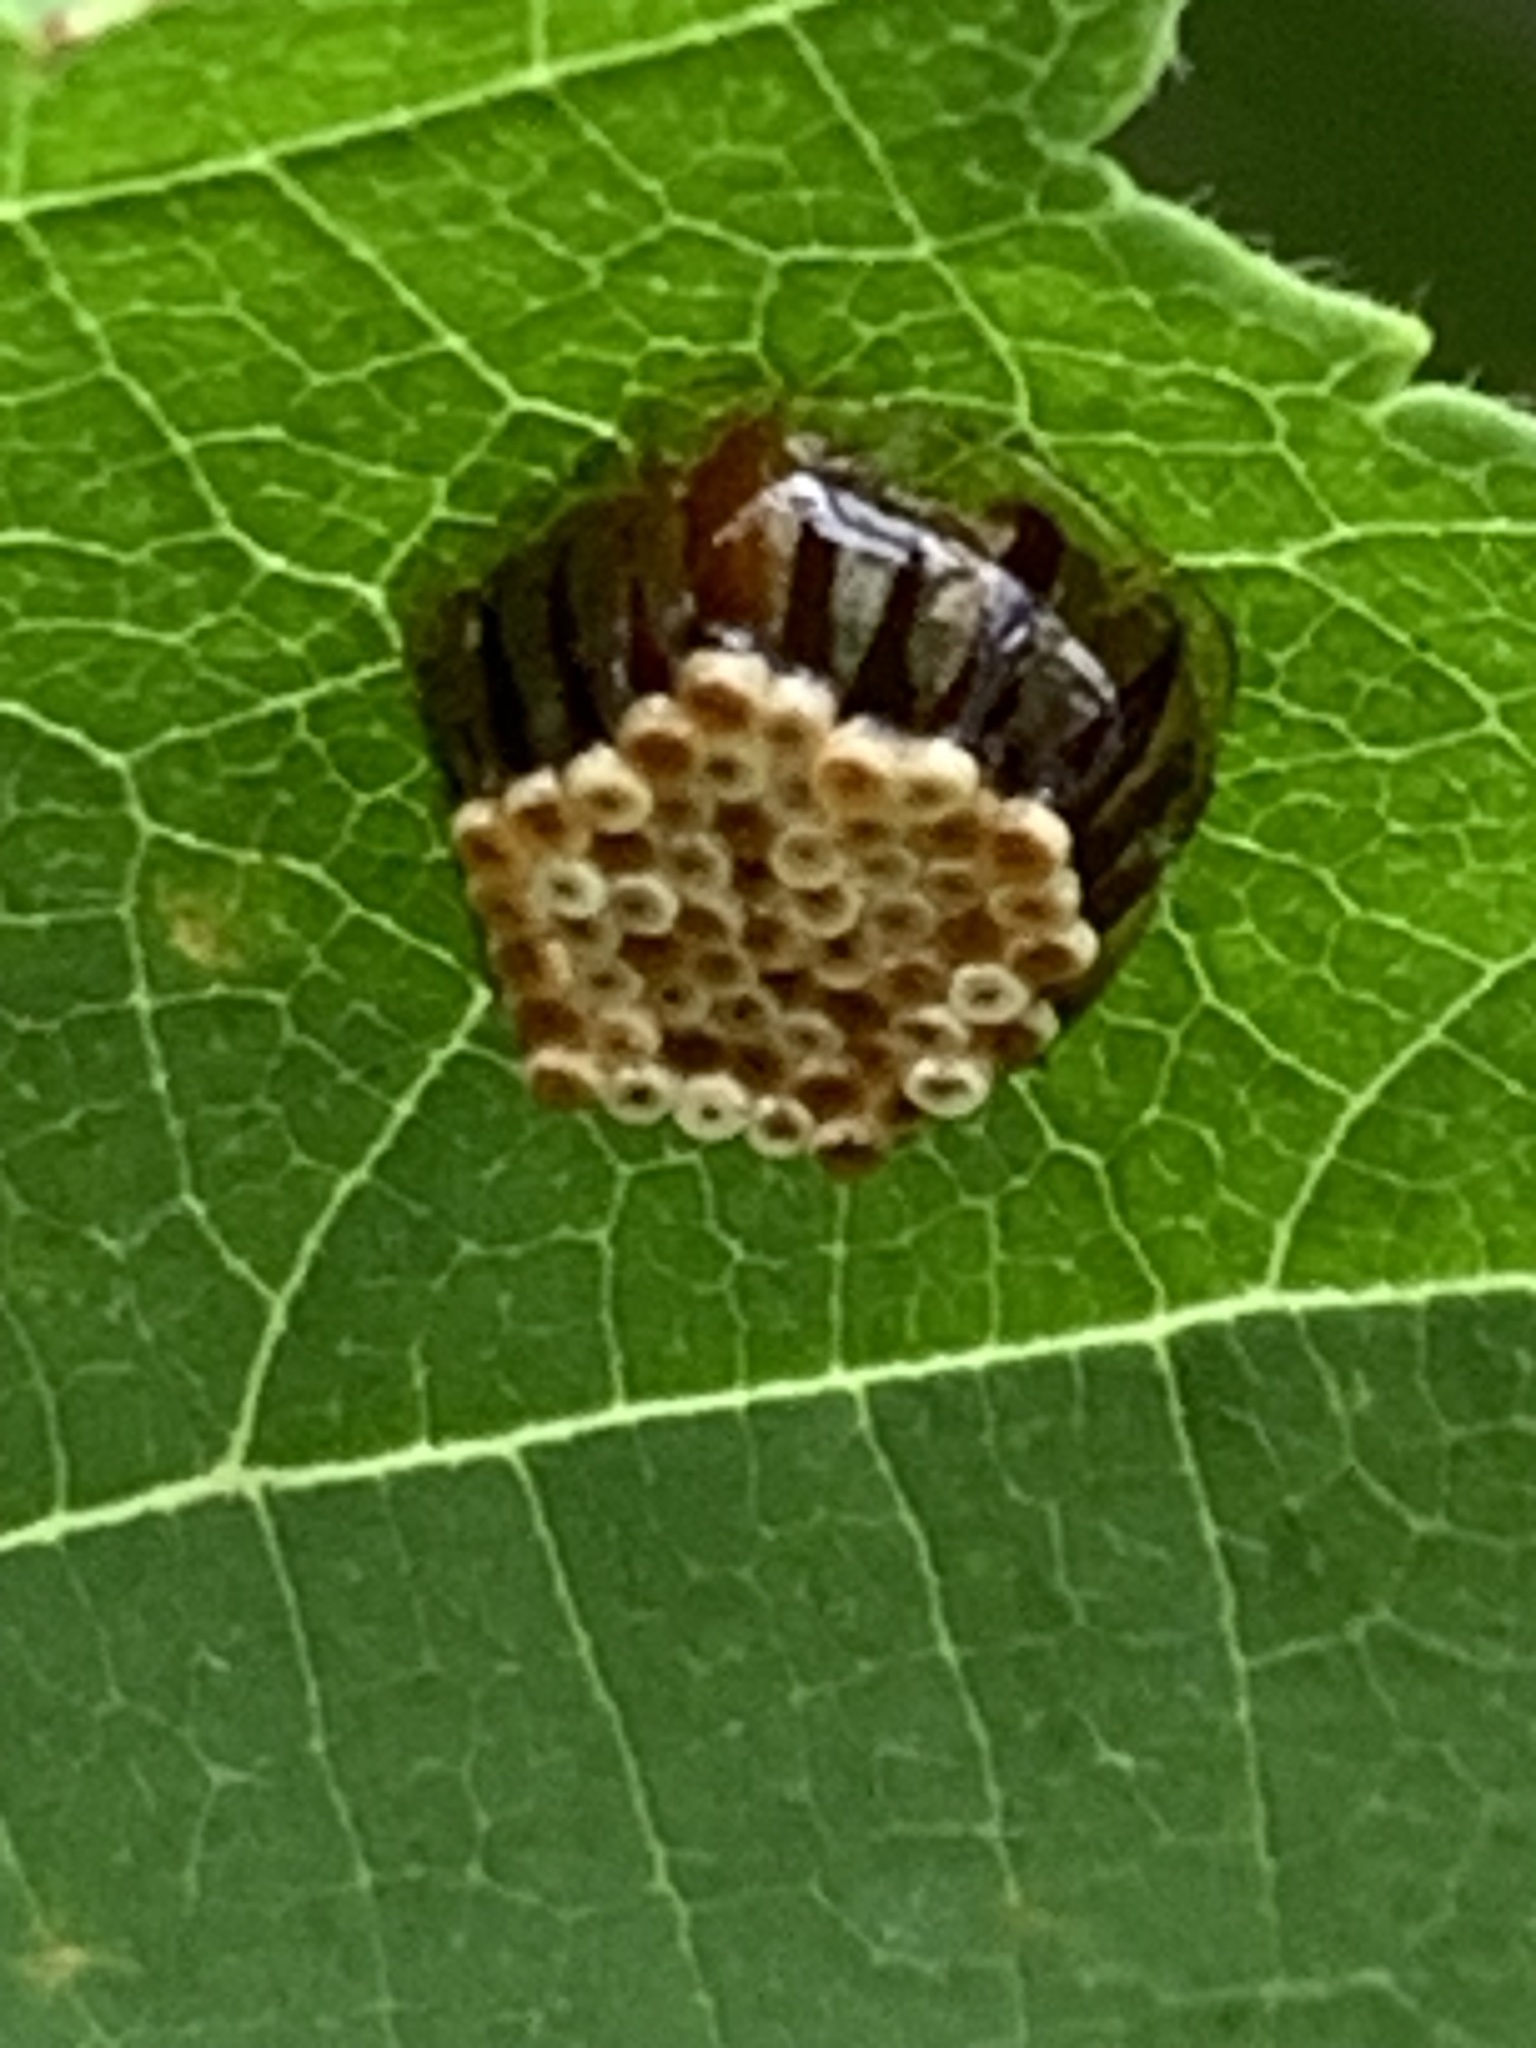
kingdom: Animalia
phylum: Arthropoda
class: Insecta
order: Hemiptera
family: Reduviidae
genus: Arilus
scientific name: Arilus cristatus
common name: North american wheel bug
